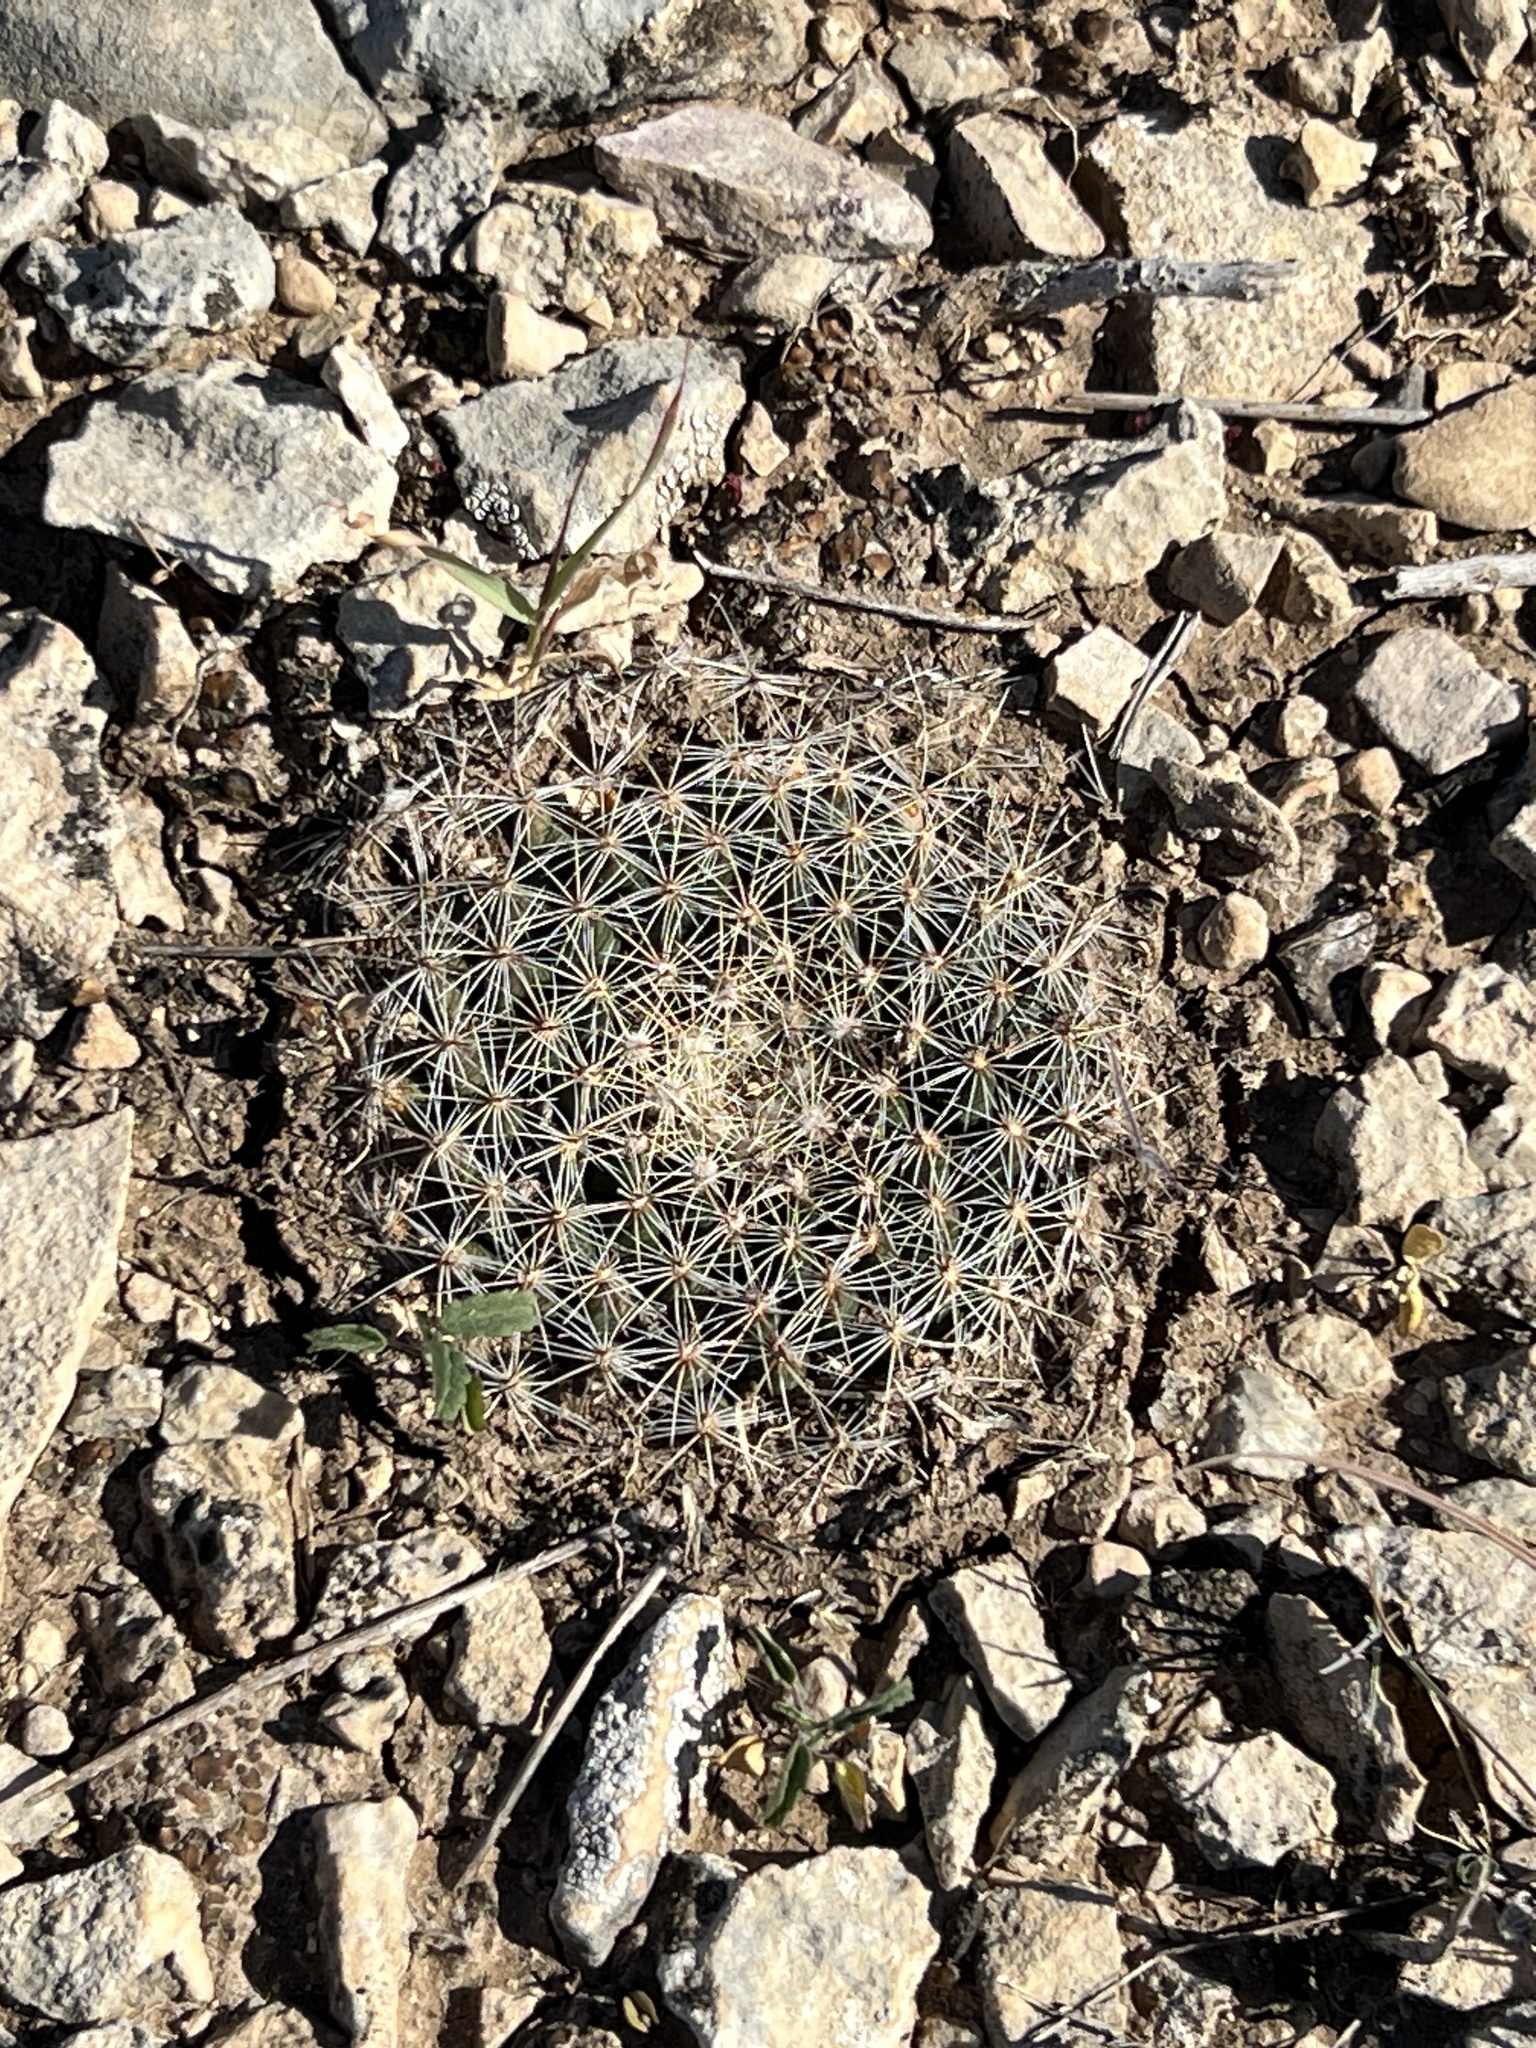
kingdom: Plantae
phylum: Tracheophyta
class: Magnoliopsida
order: Caryophyllales
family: Cactaceae
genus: Mammillaria
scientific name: Mammillaria heyderi
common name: Little nipple cactus
